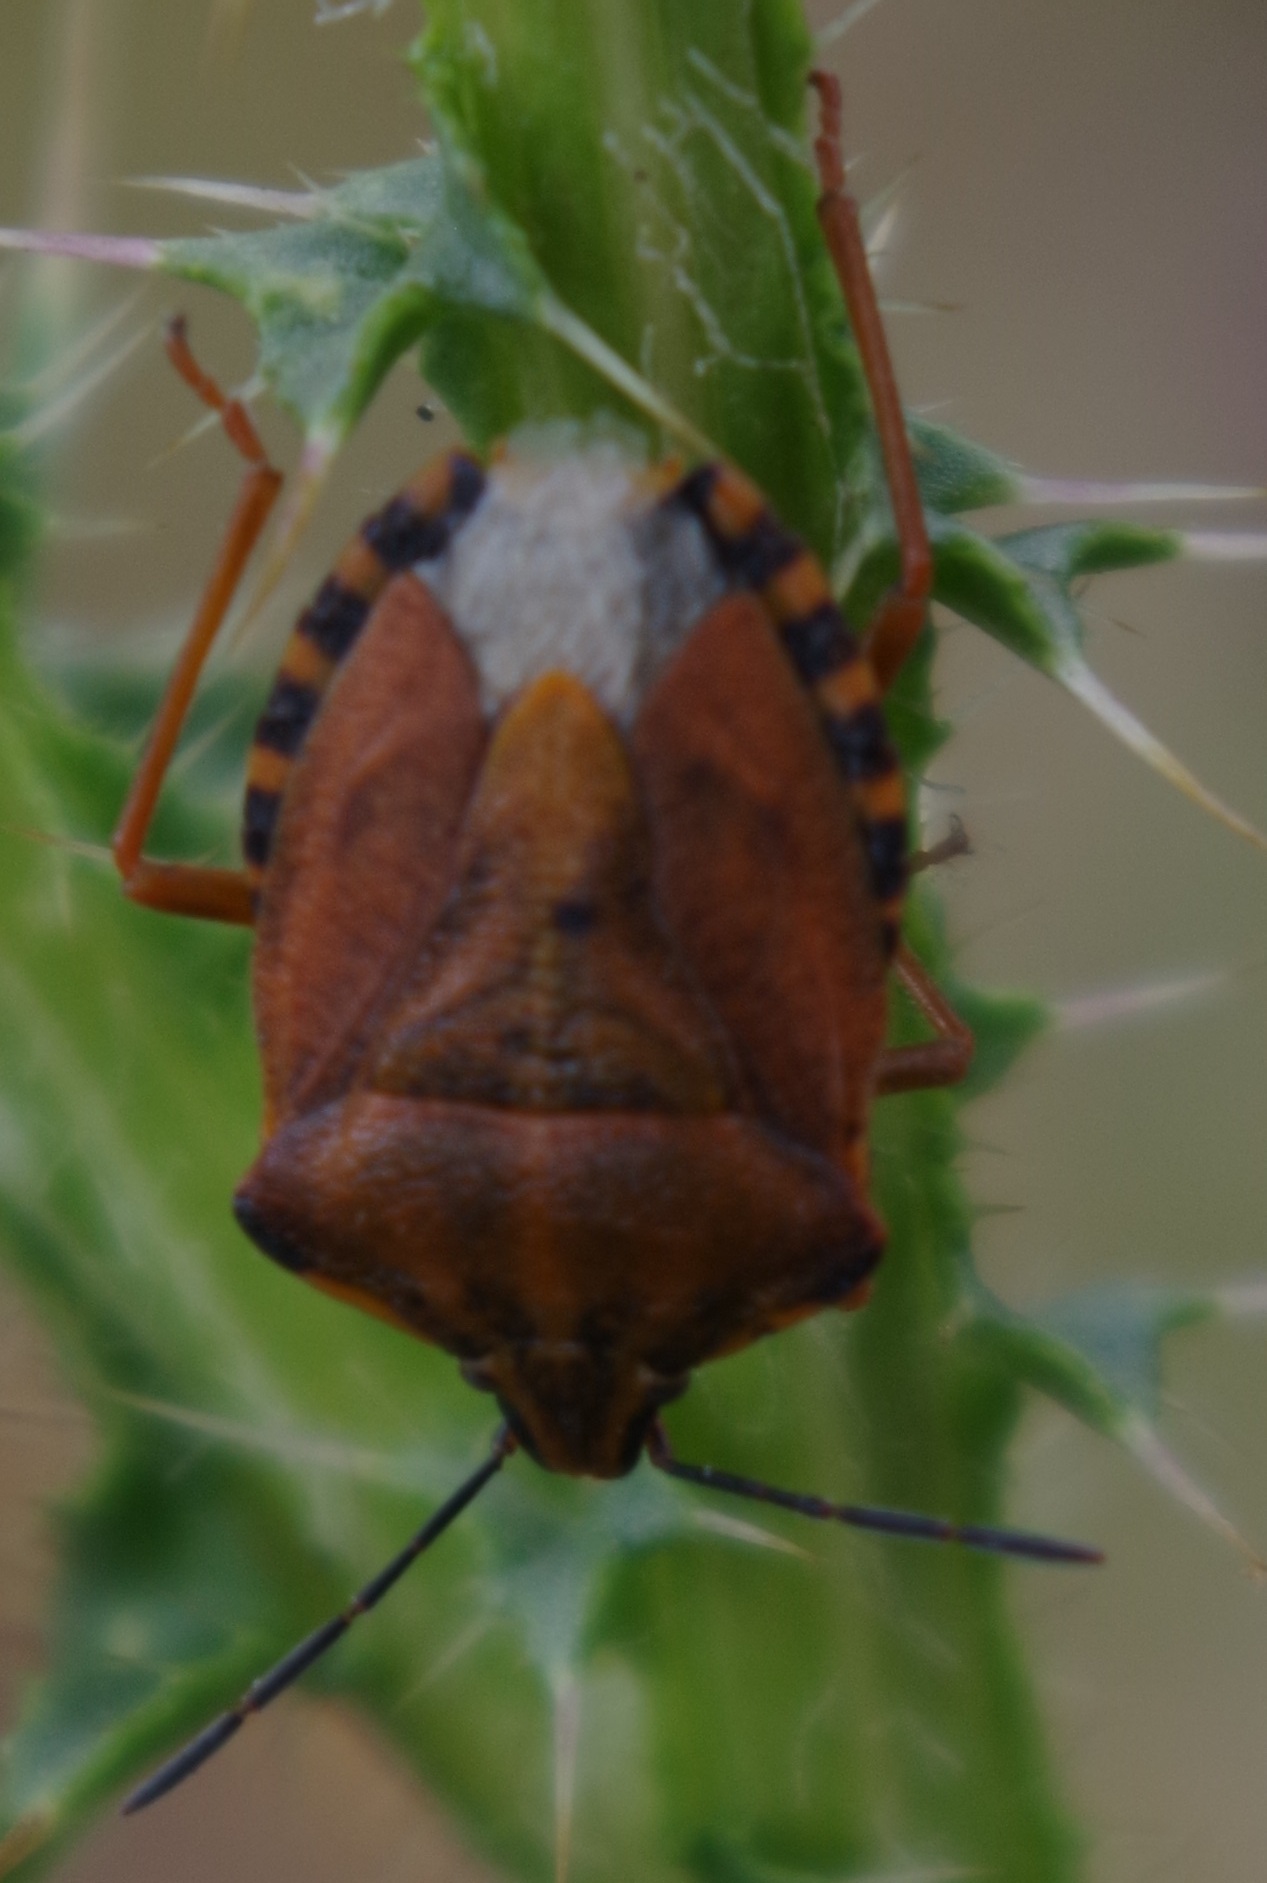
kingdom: Animalia
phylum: Arthropoda
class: Insecta
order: Hemiptera
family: Pentatomidae
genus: Carpocoris
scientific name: Carpocoris purpureipennis
